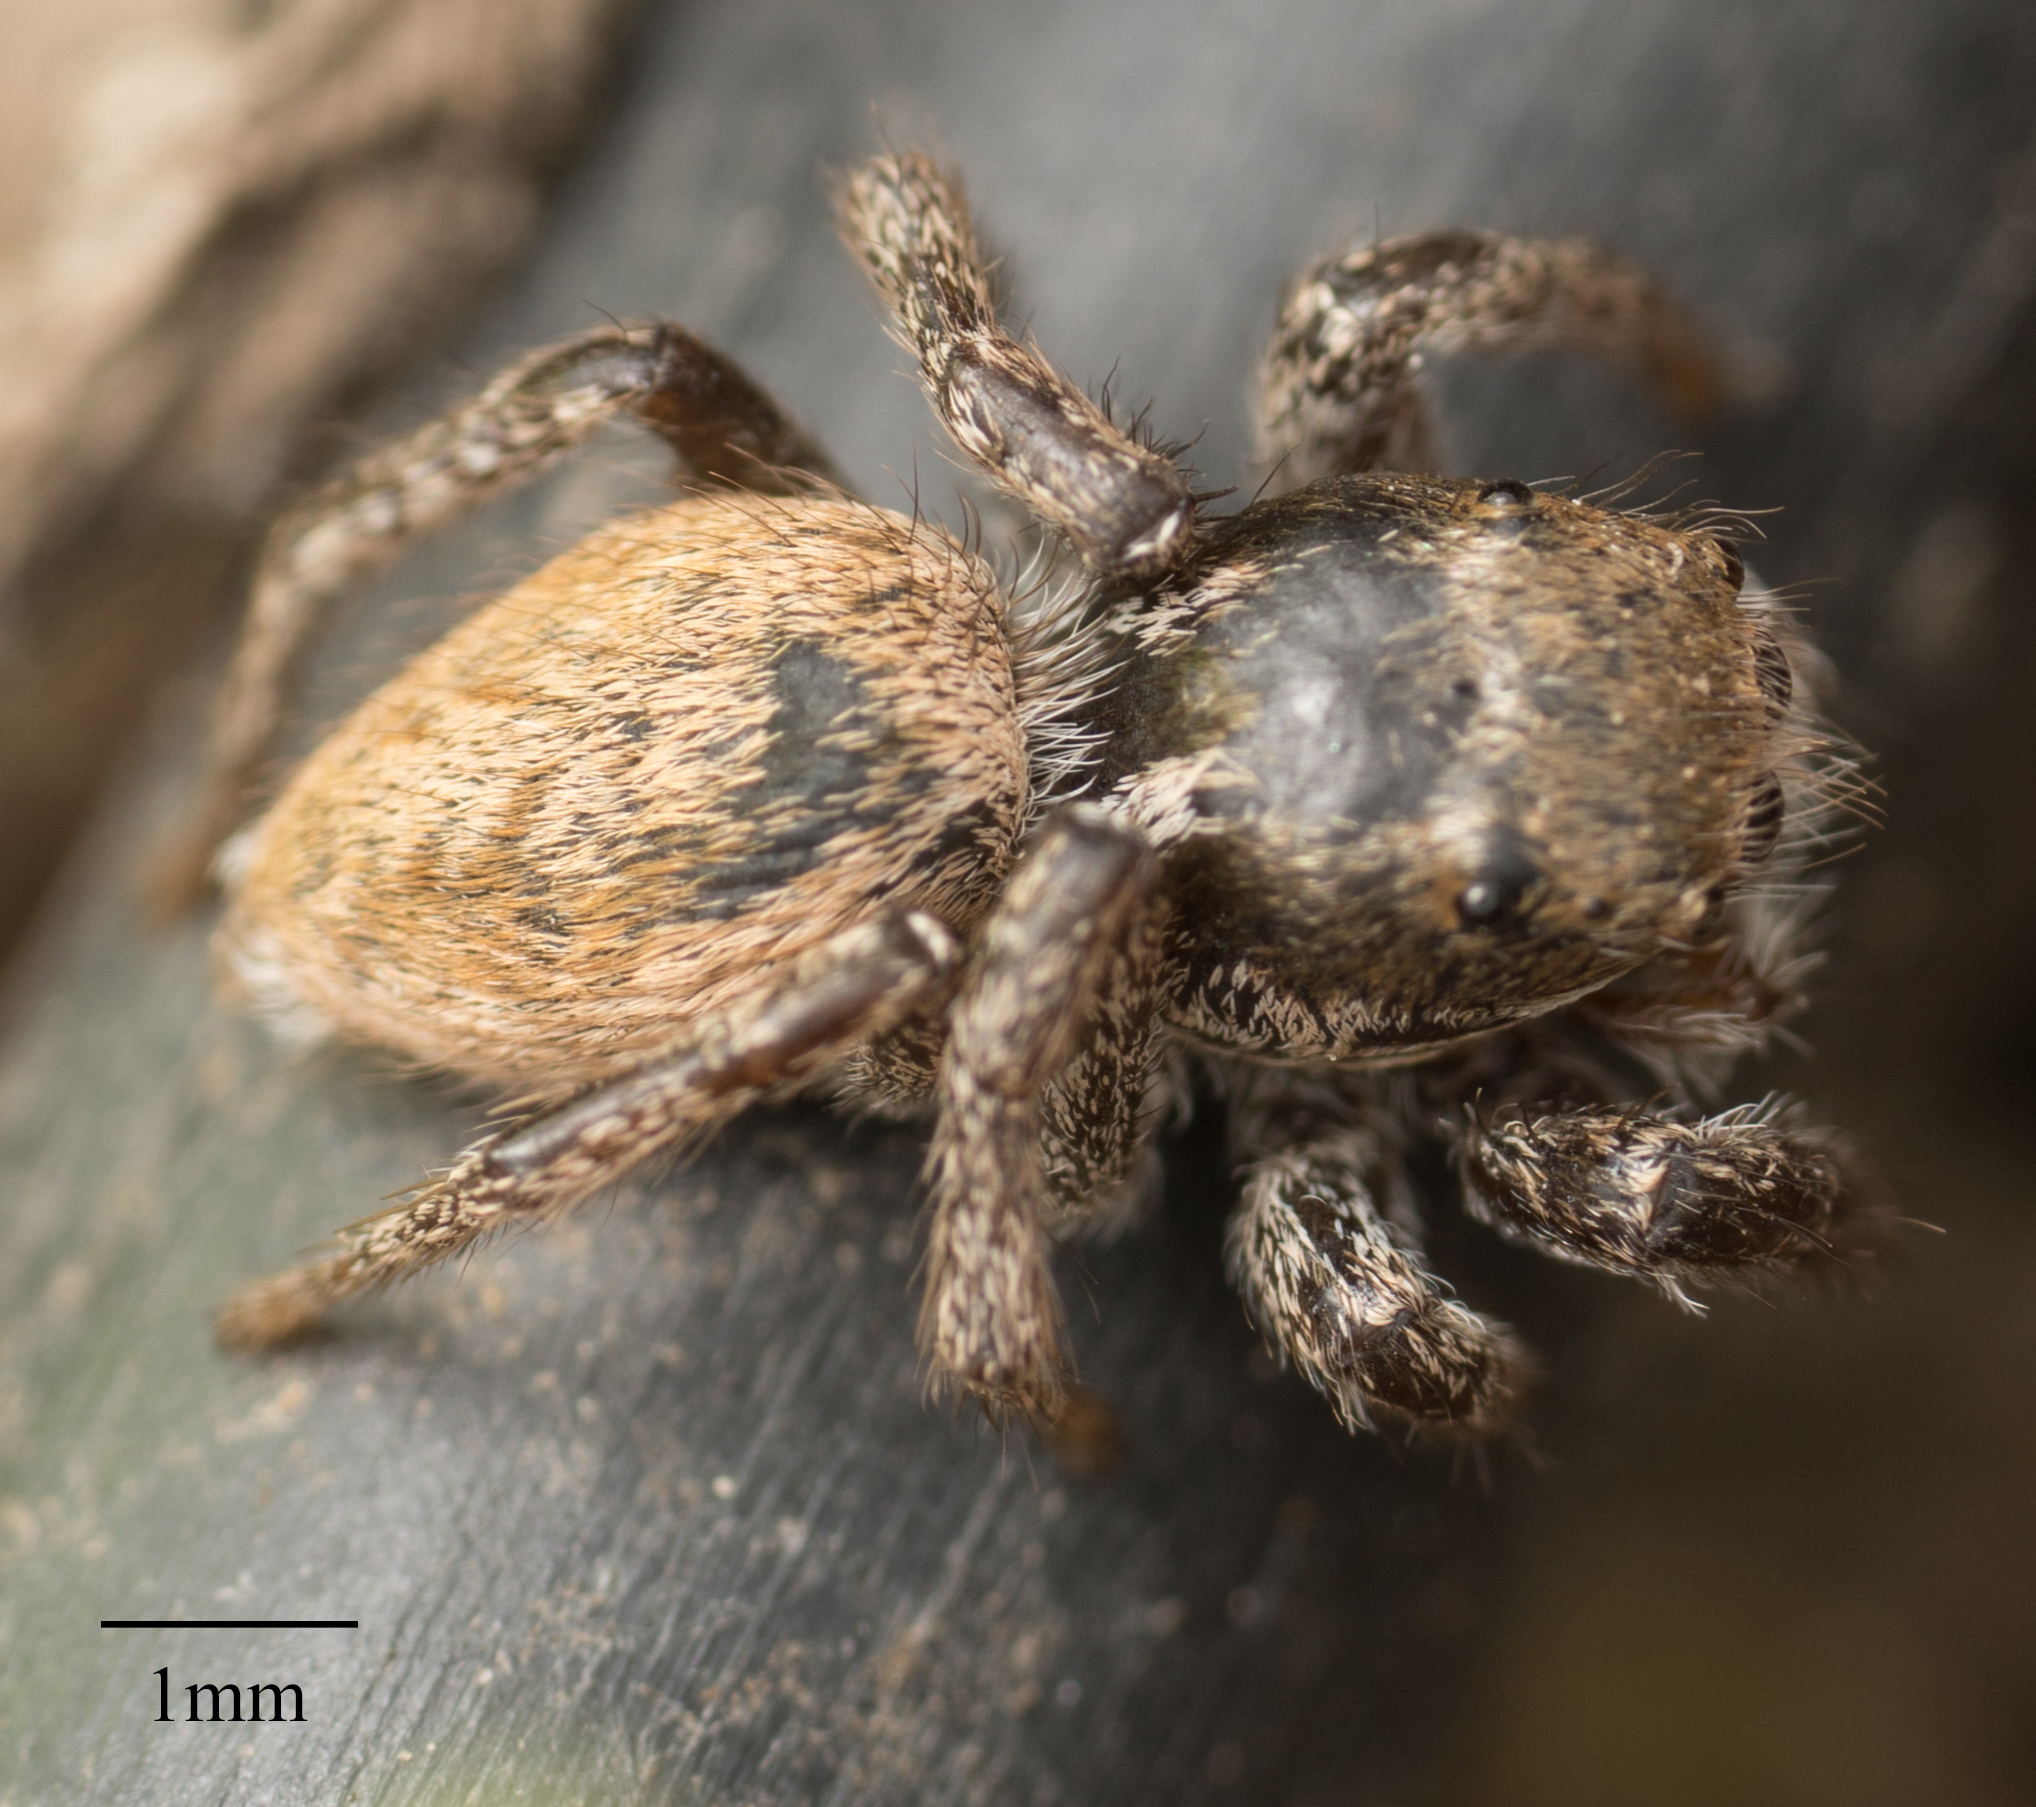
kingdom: Animalia
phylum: Arthropoda
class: Arachnida
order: Araneae
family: Salticidae
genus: Habronattus
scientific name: Habronattus pyrrithrix
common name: Jumping spider
